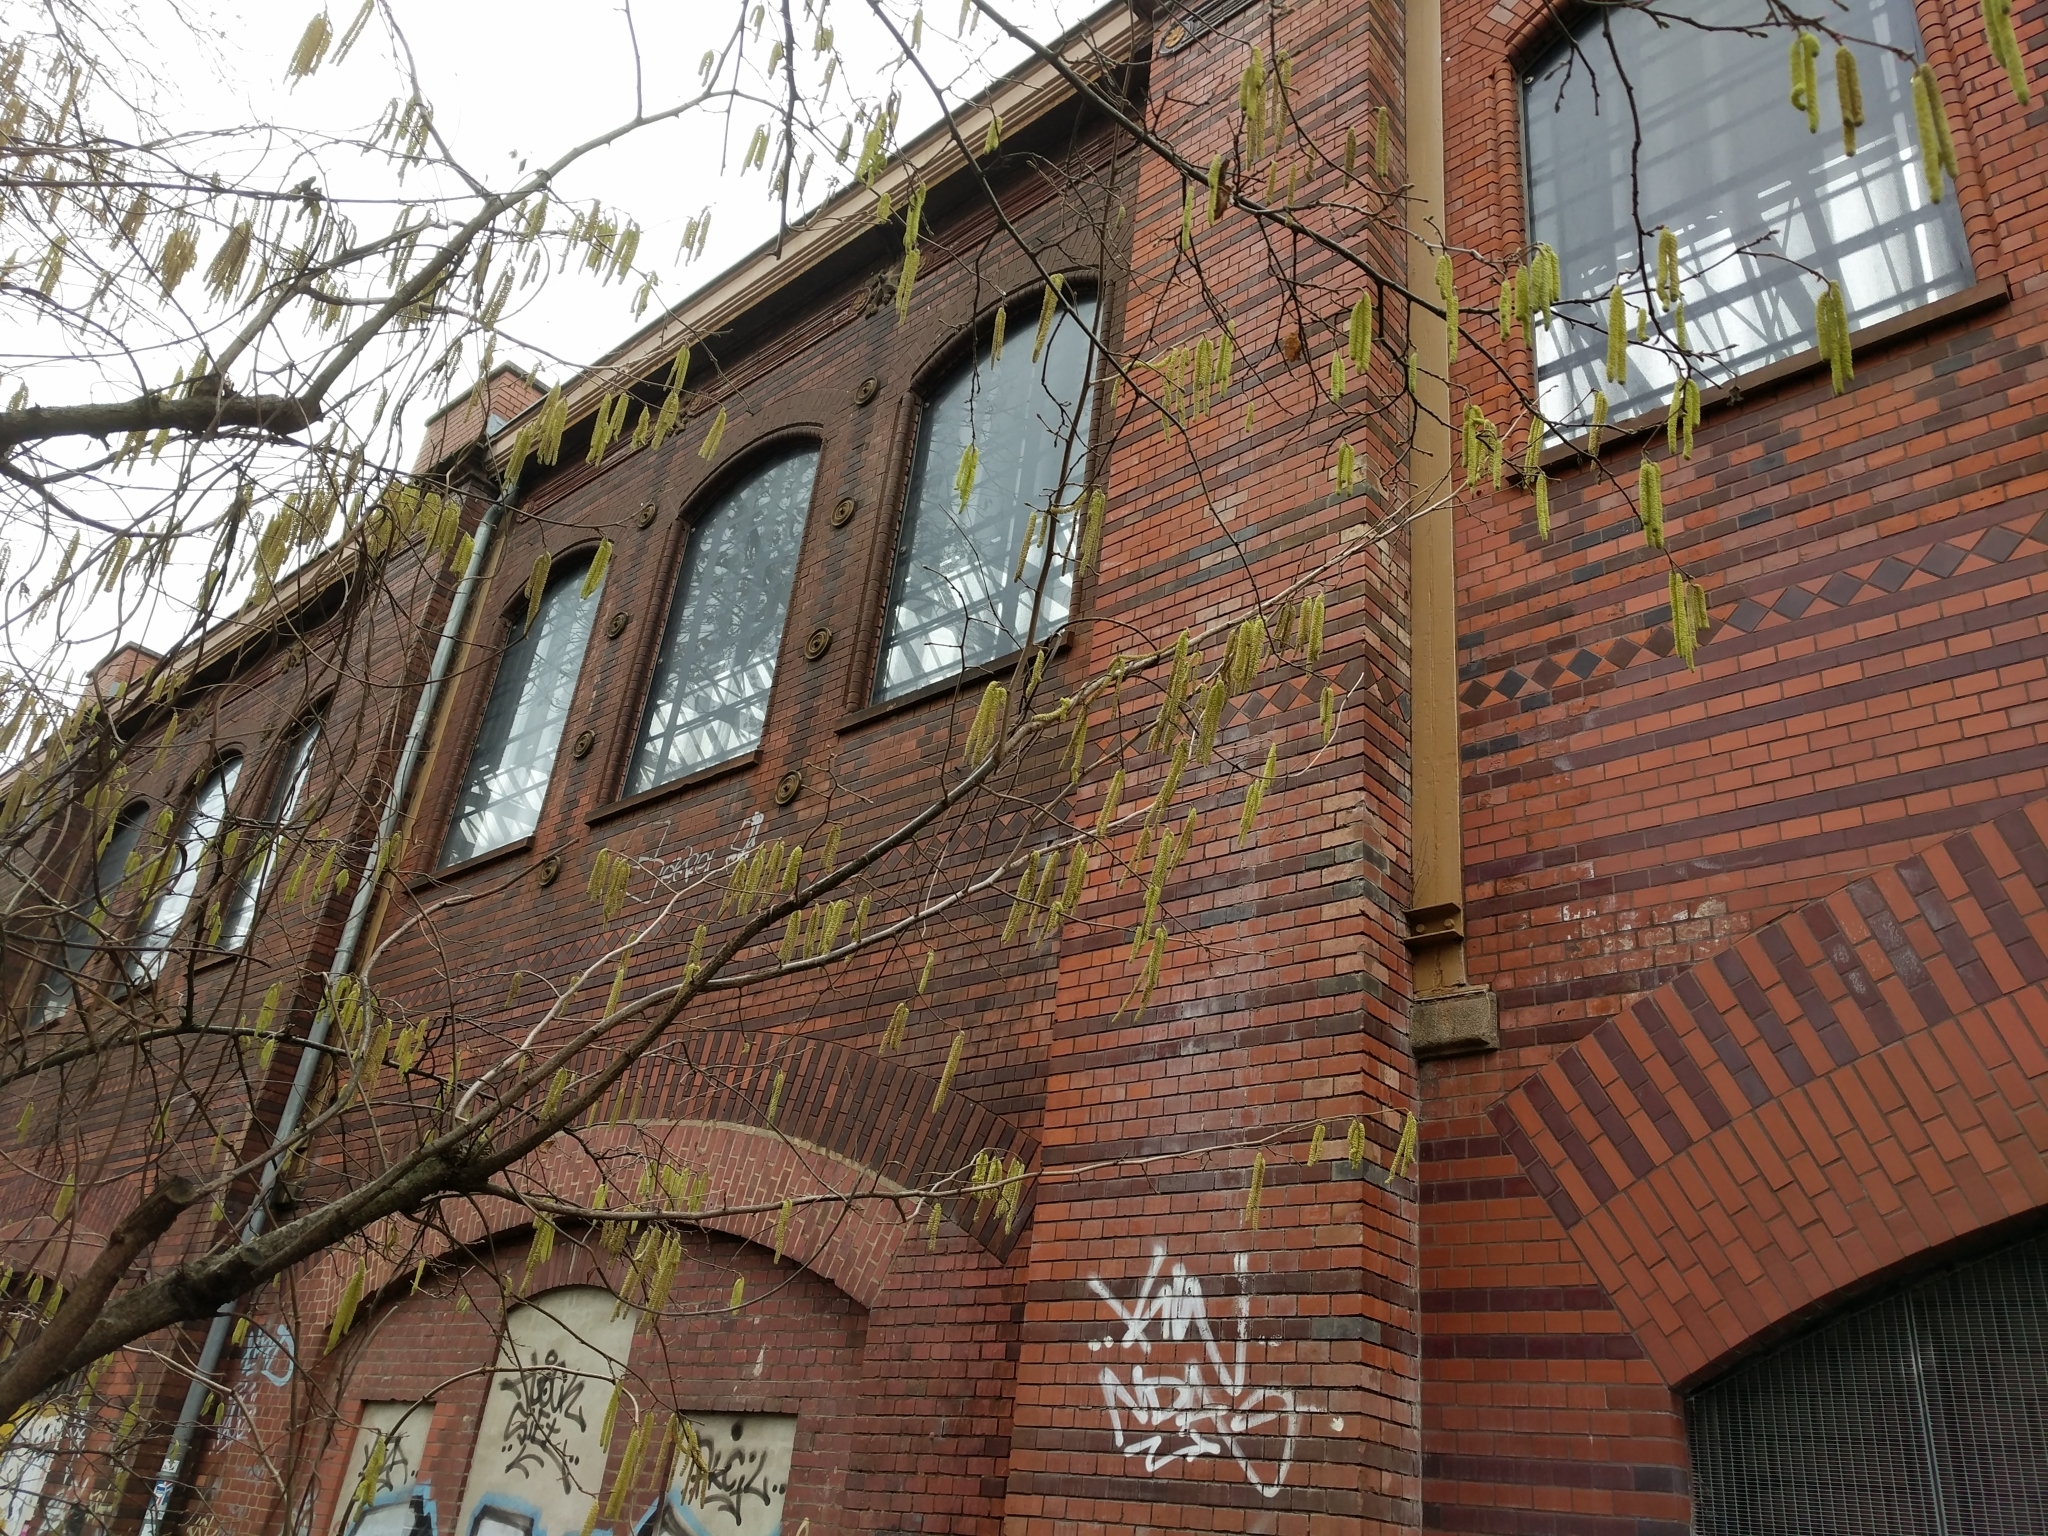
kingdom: Plantae
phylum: Tracheophyta
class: Magnoliopsida
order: Fagales
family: Betulaceae
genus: Corylus
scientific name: Corylus avellana
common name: European hazel
